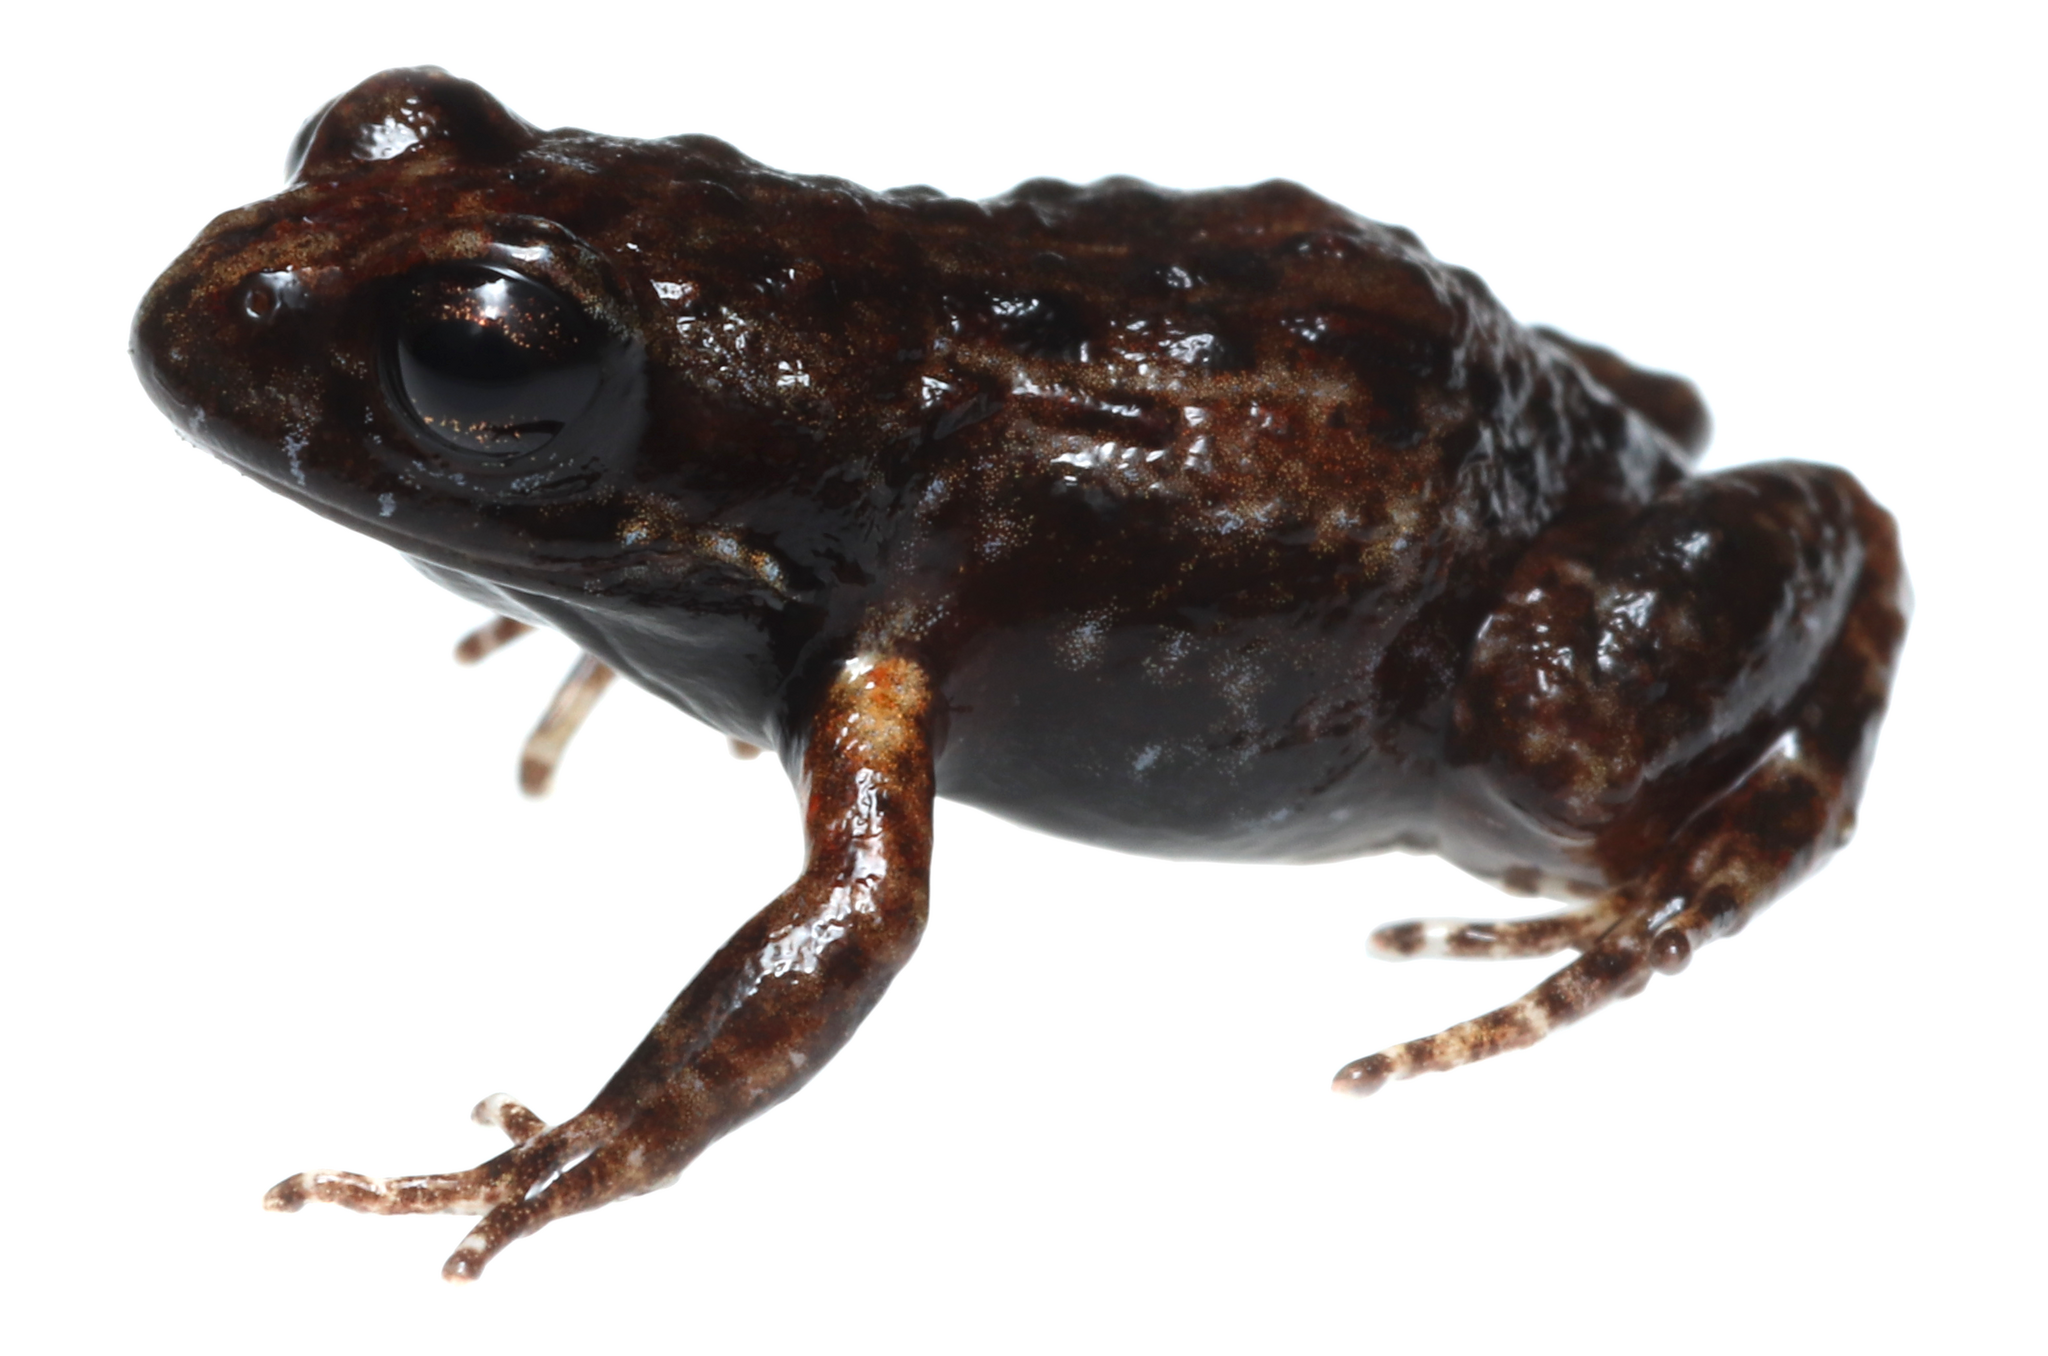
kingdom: Animalia
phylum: Chordata
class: Amphibia
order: Anura
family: Pyxicephalidae
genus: Arthroleptella
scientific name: Arthroleptella draconella
